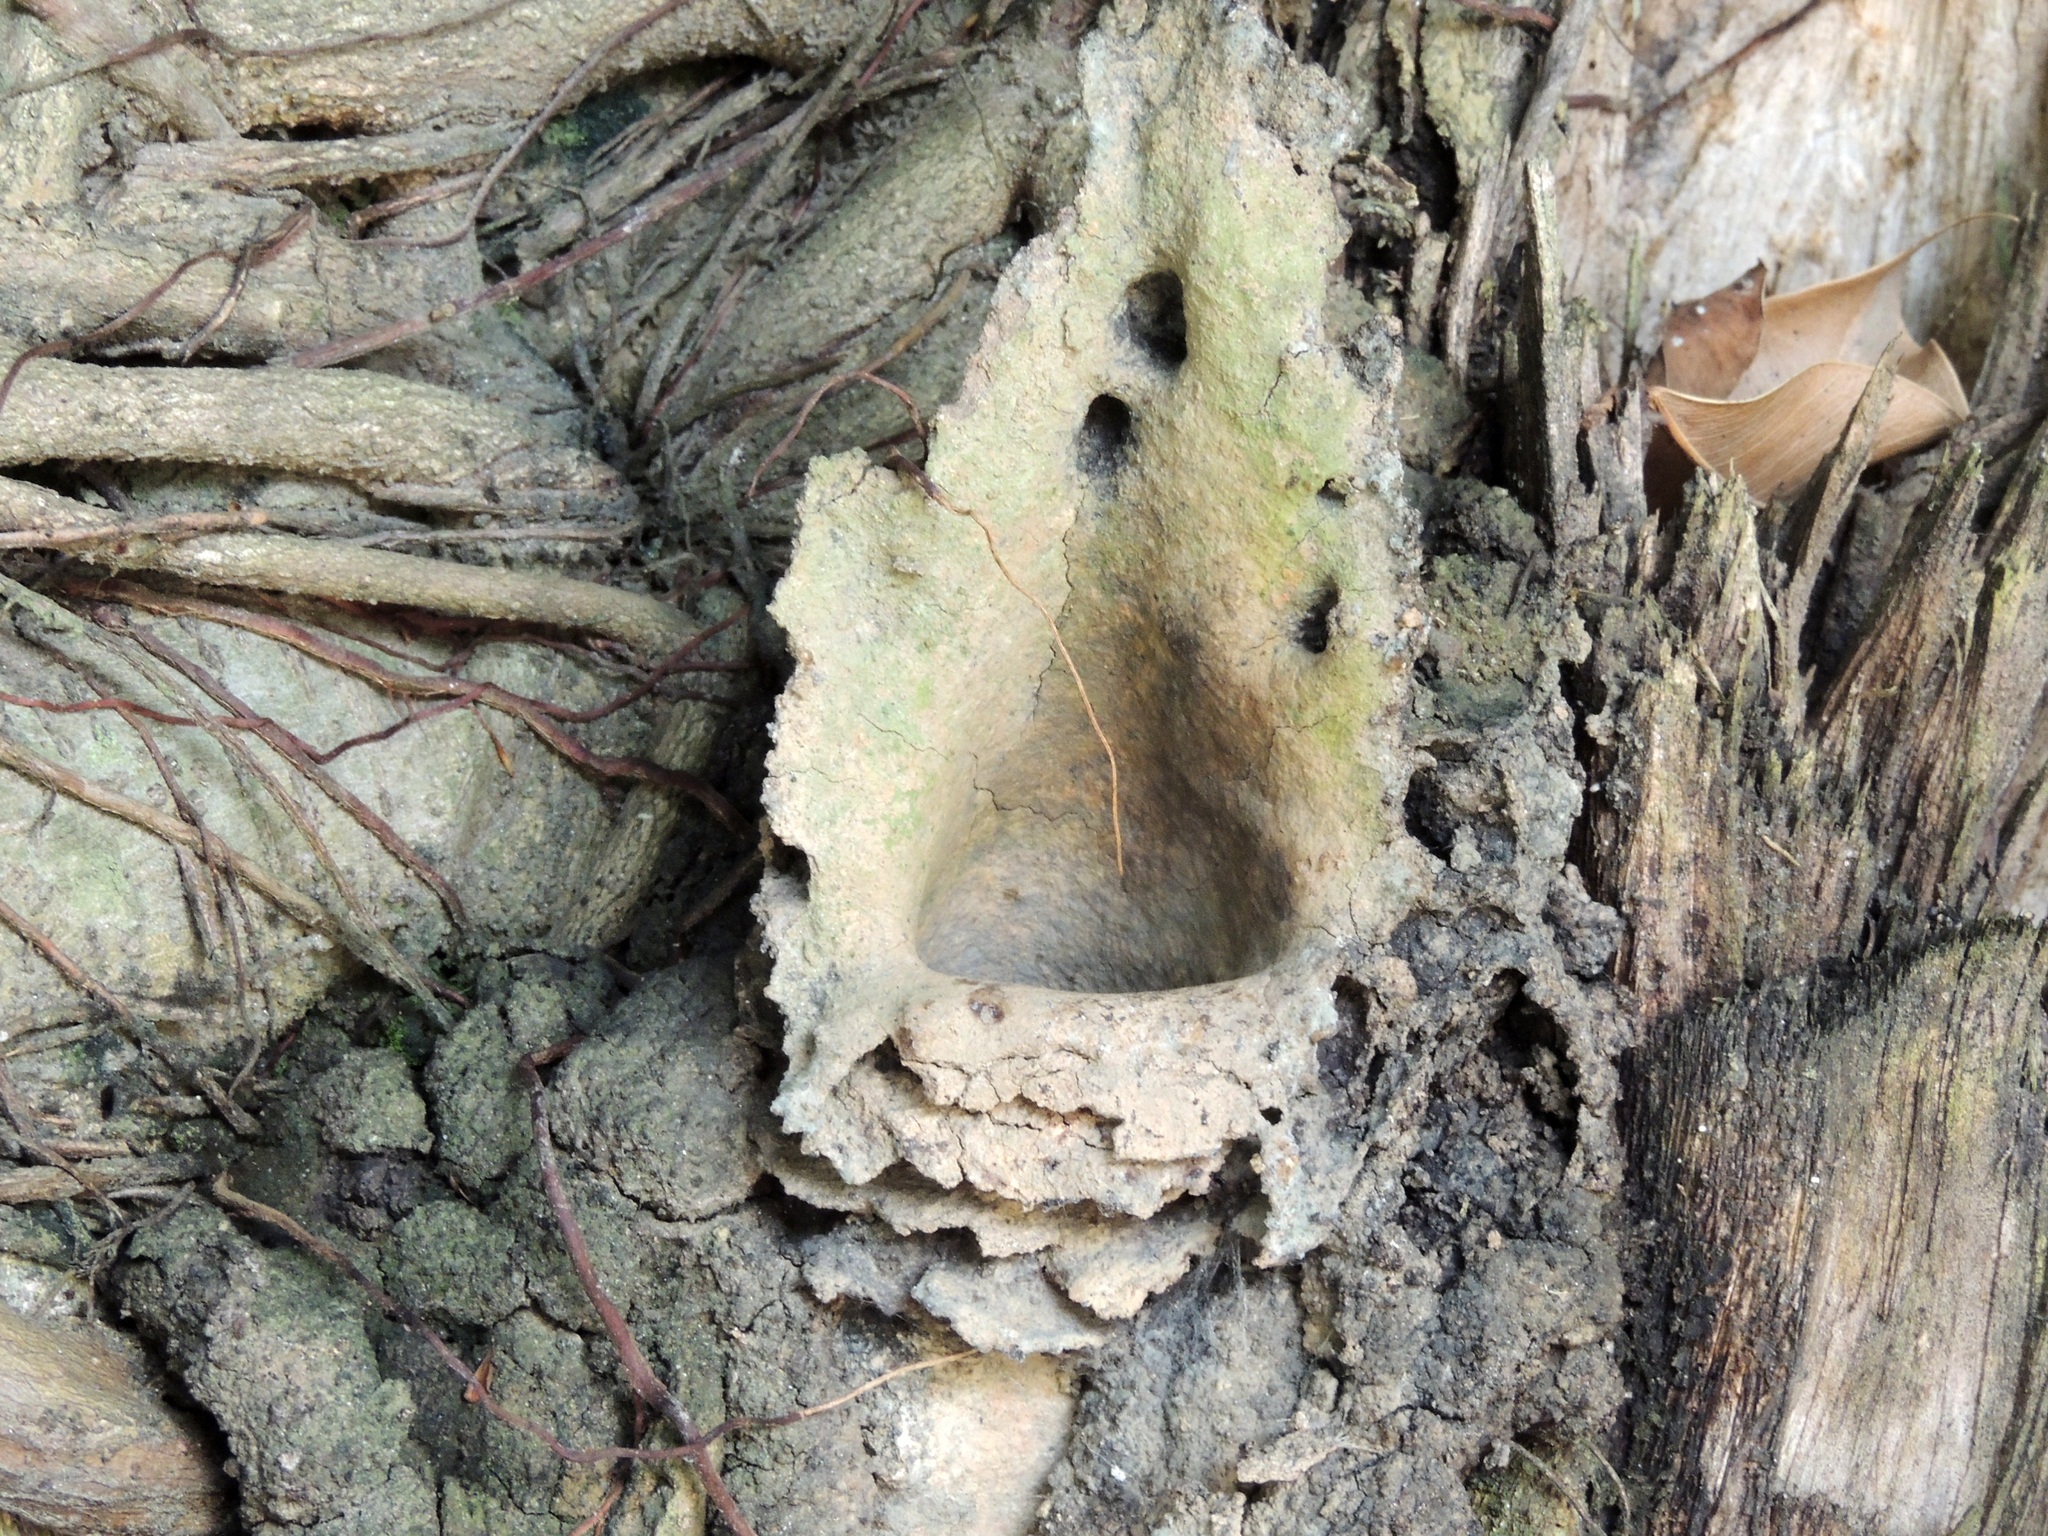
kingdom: Animalia
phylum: Arthropoda
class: Insecta
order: Hymenoptera
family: Apidae
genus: Partamona
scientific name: Partamona helleri
